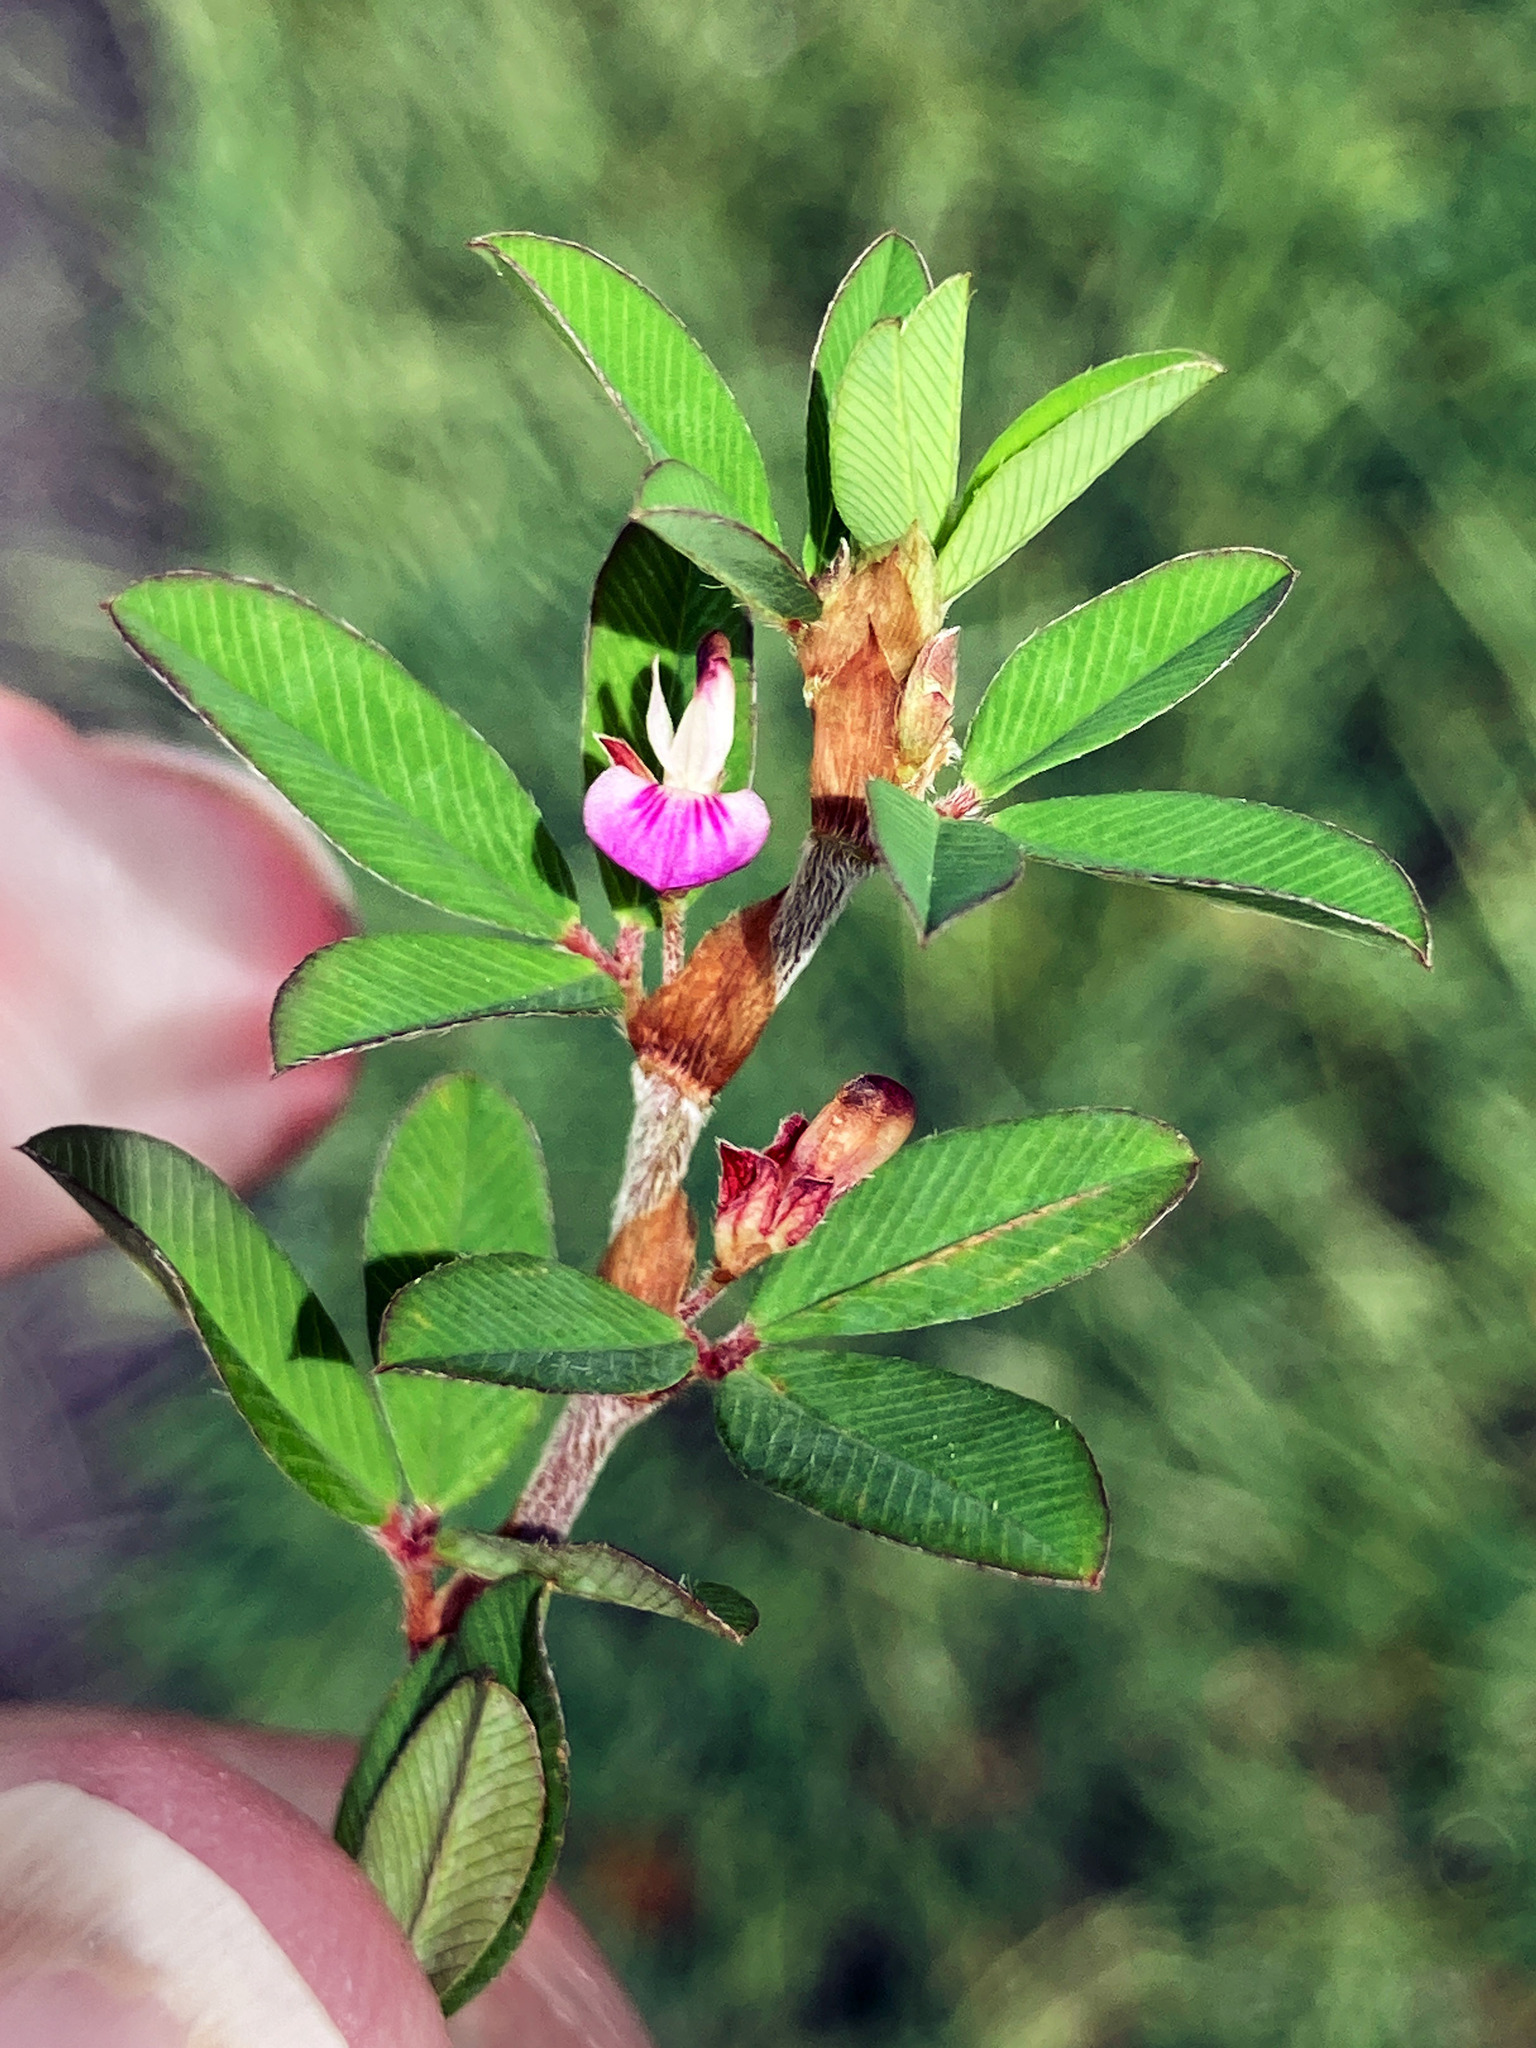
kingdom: Plantae
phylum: Tracheophyta
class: Magnoliopsida
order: Fabales
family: Fabaceae
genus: Kummerowia
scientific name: Kummerowia striata
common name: Japanese clover
